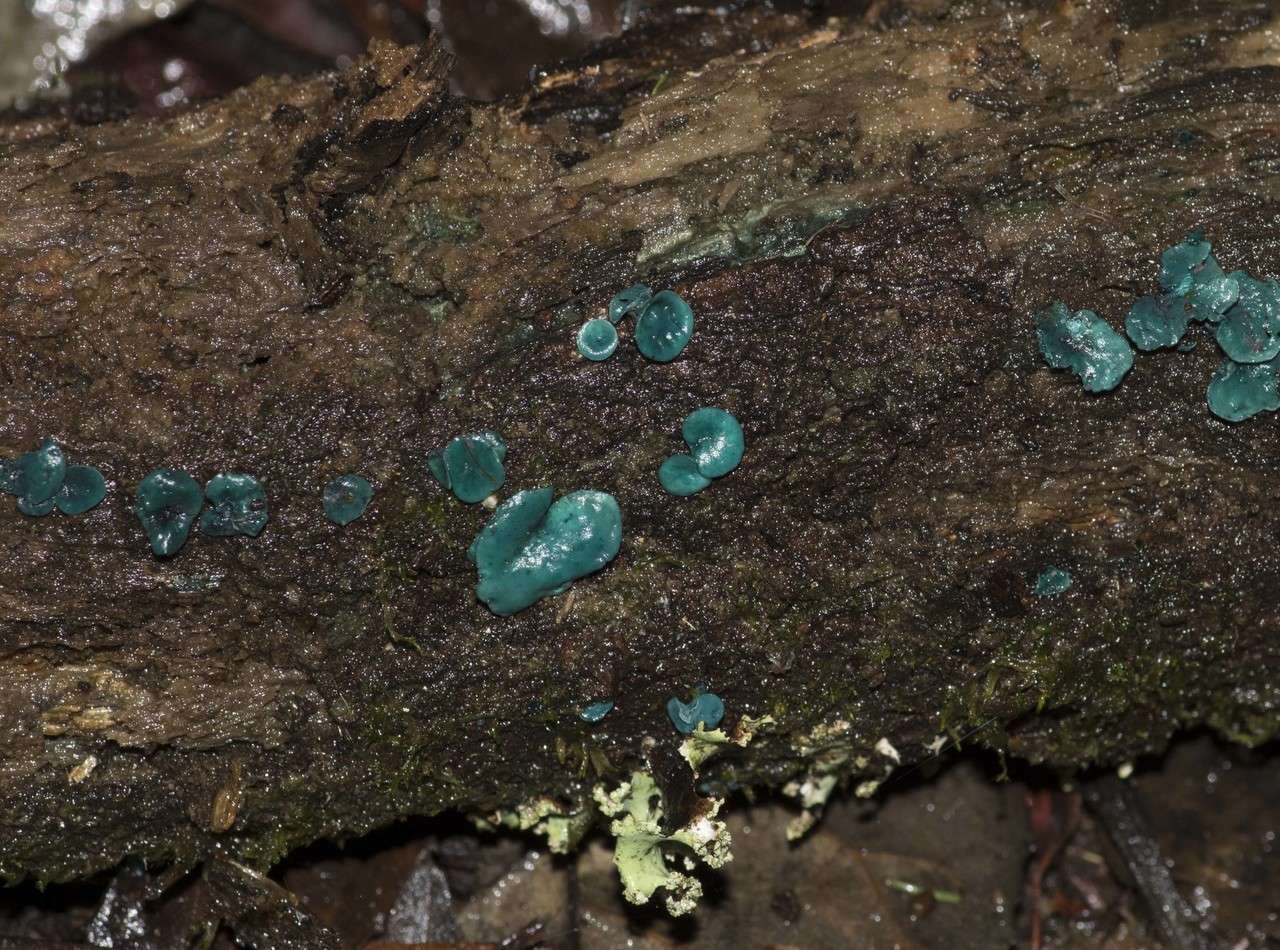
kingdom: Fungi
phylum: Ascomycota
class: Leotiomycetes
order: Helotiales
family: Chlorociboriaceae
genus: Chlorociboria
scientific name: Chlorociboria
